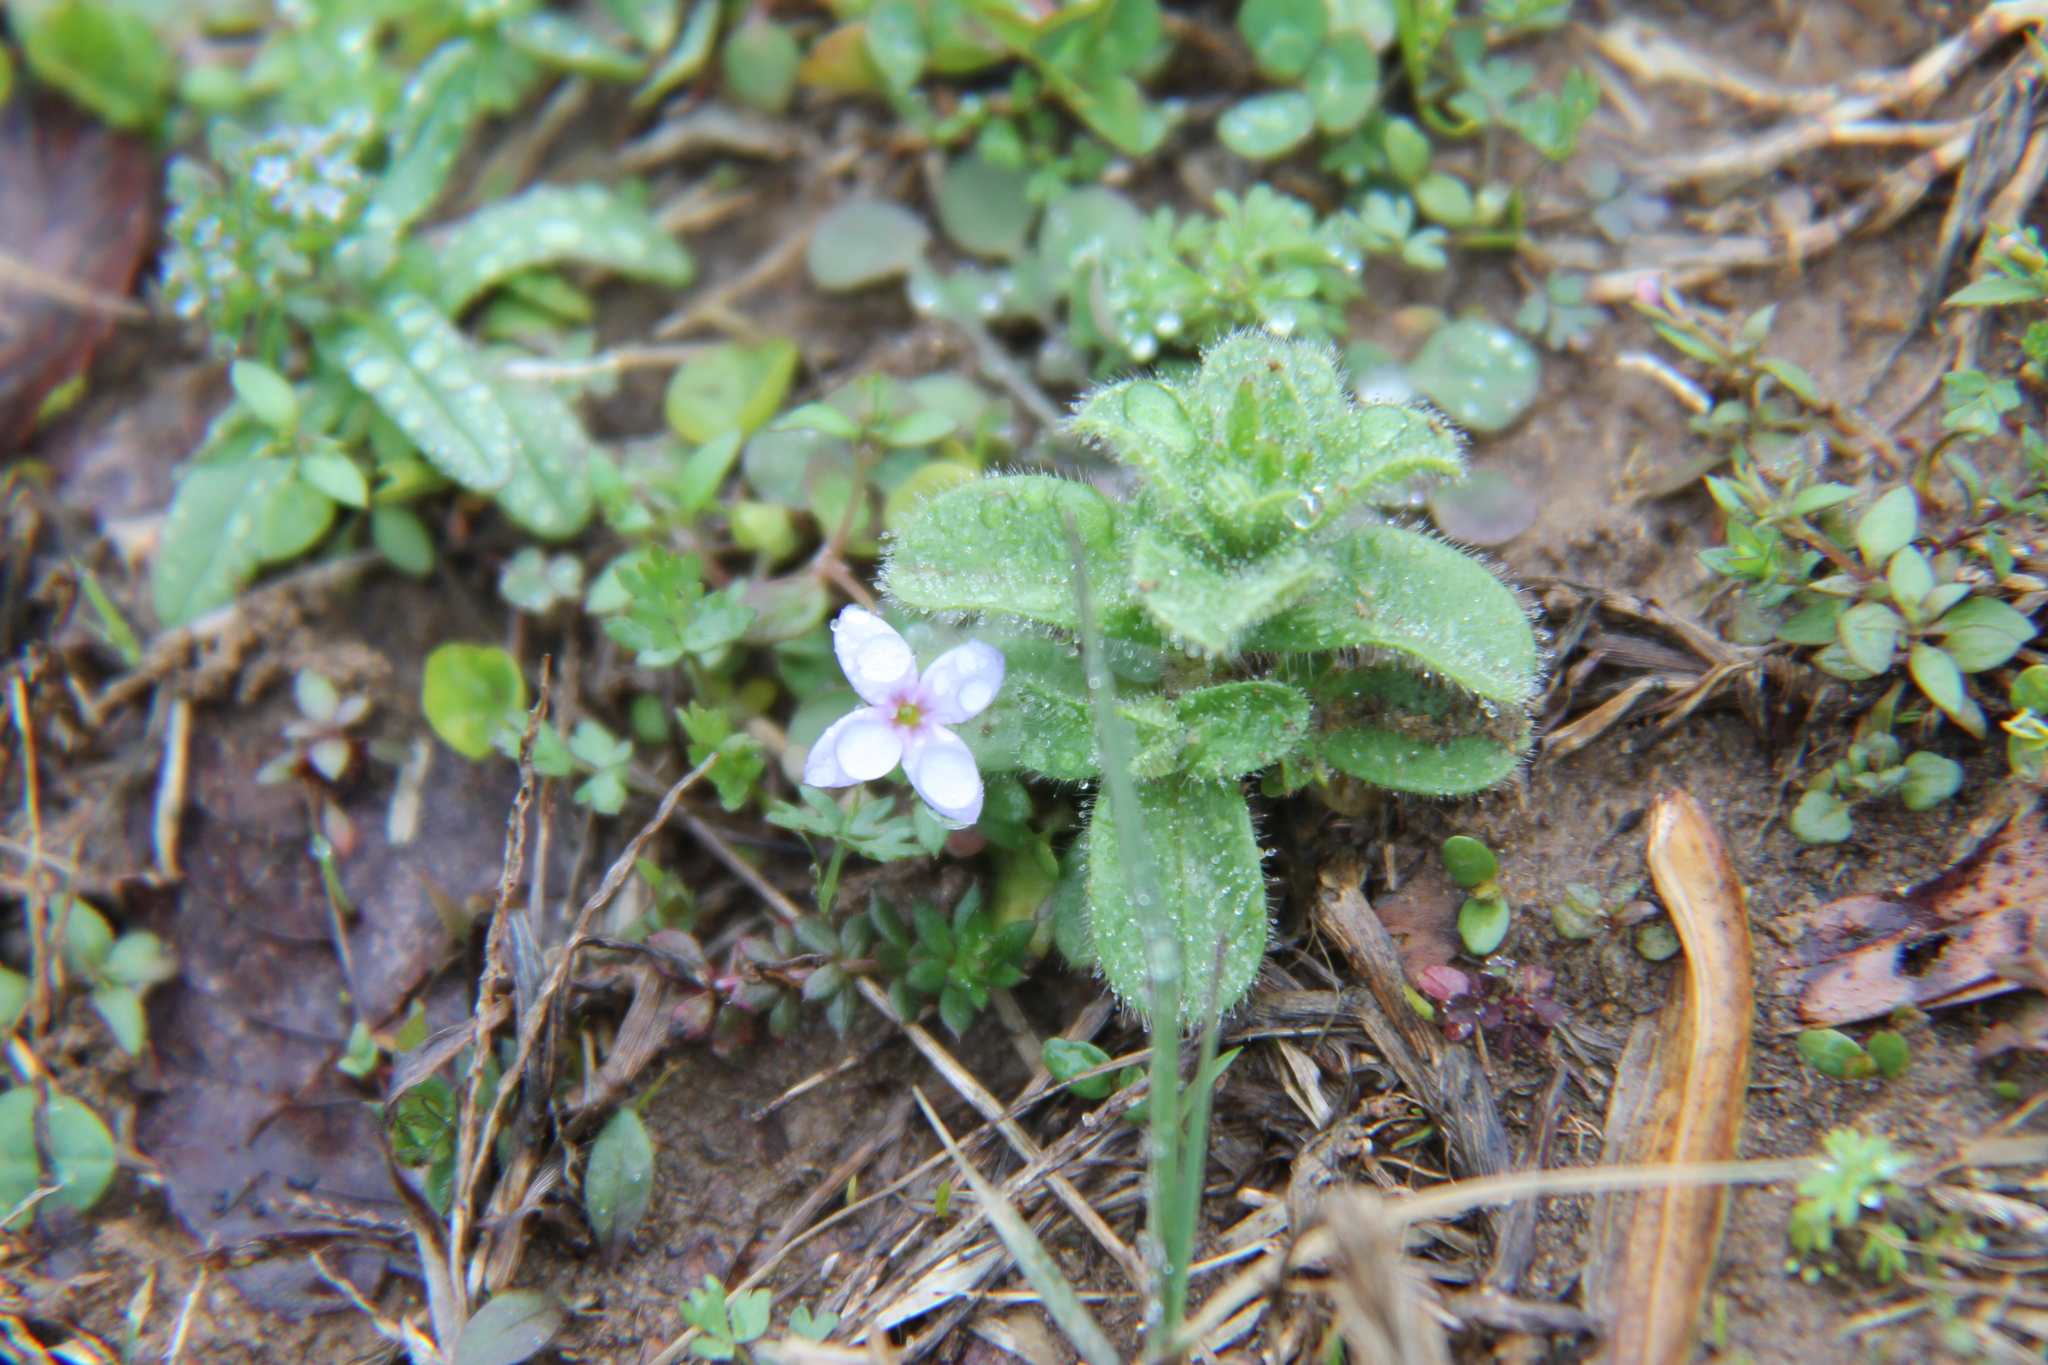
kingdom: Plantae
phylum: Tracheophyta
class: Magnoliopsida
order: Gentianales
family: Rubiaceae
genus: Houstonia
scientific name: Houstonia pusilla
